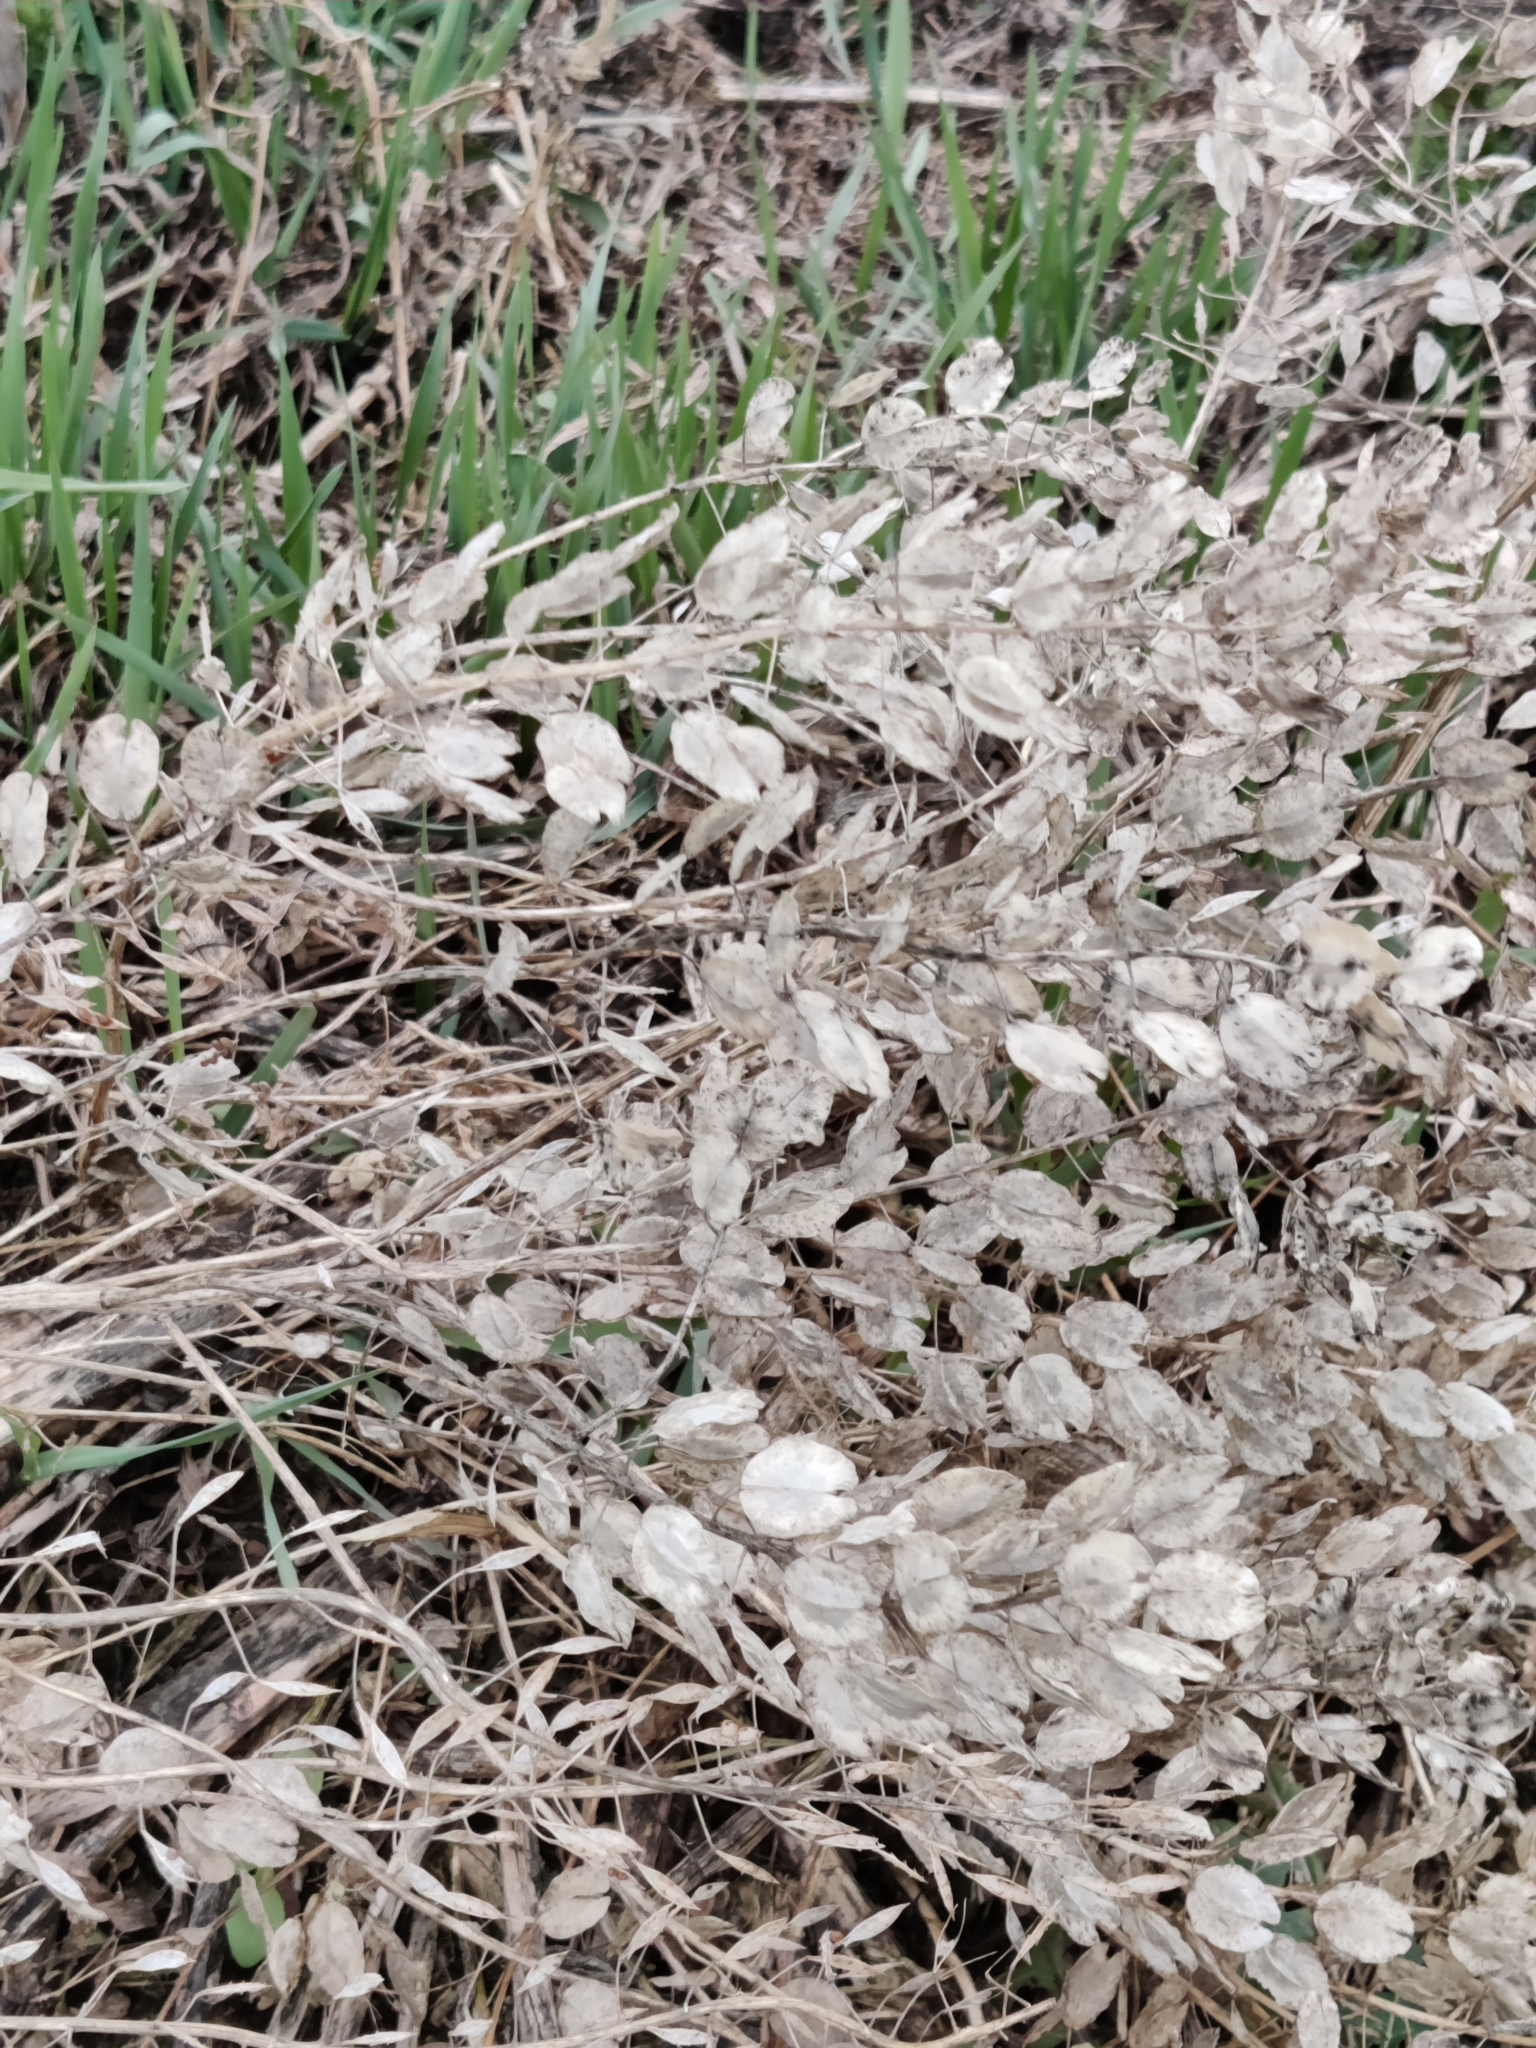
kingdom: Plantae
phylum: Tracheophyta
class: Magnoliopsida
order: Brassicales
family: Brassicaceae
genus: Thlaspi
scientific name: Thlaspi arvense
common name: Field pennycress
